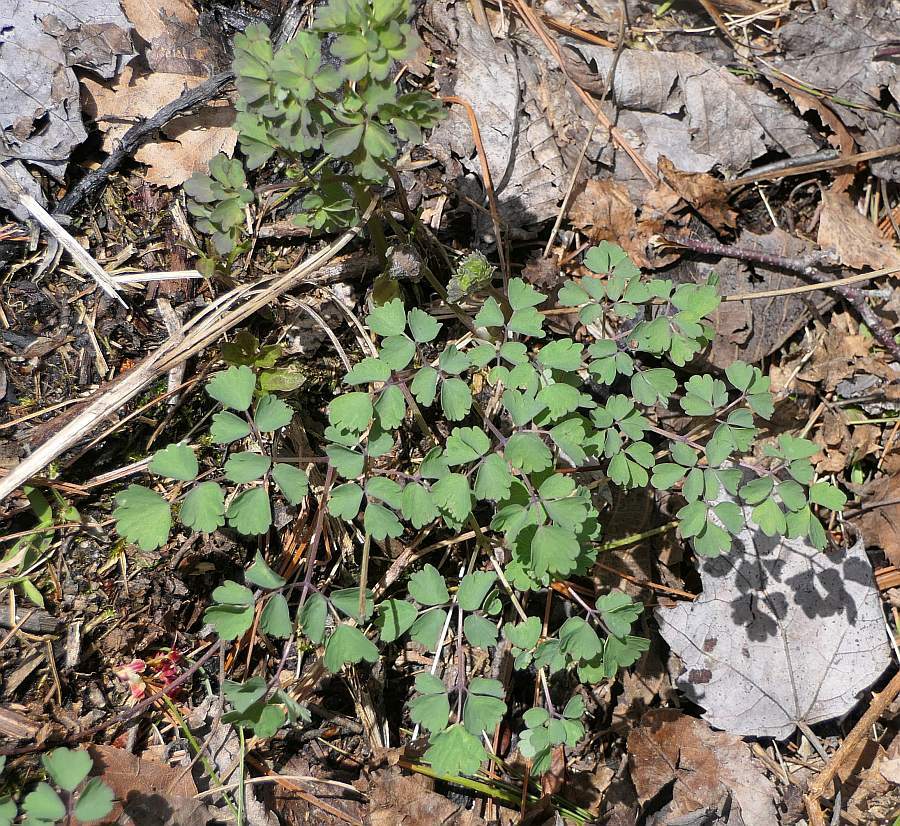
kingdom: Plantae
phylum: Tracheophyta
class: Magnoliopsida
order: Ranunculales
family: Ranunculaceae
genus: Thalictrum
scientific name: Thalictrum dioicum
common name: Early meadow-rue
